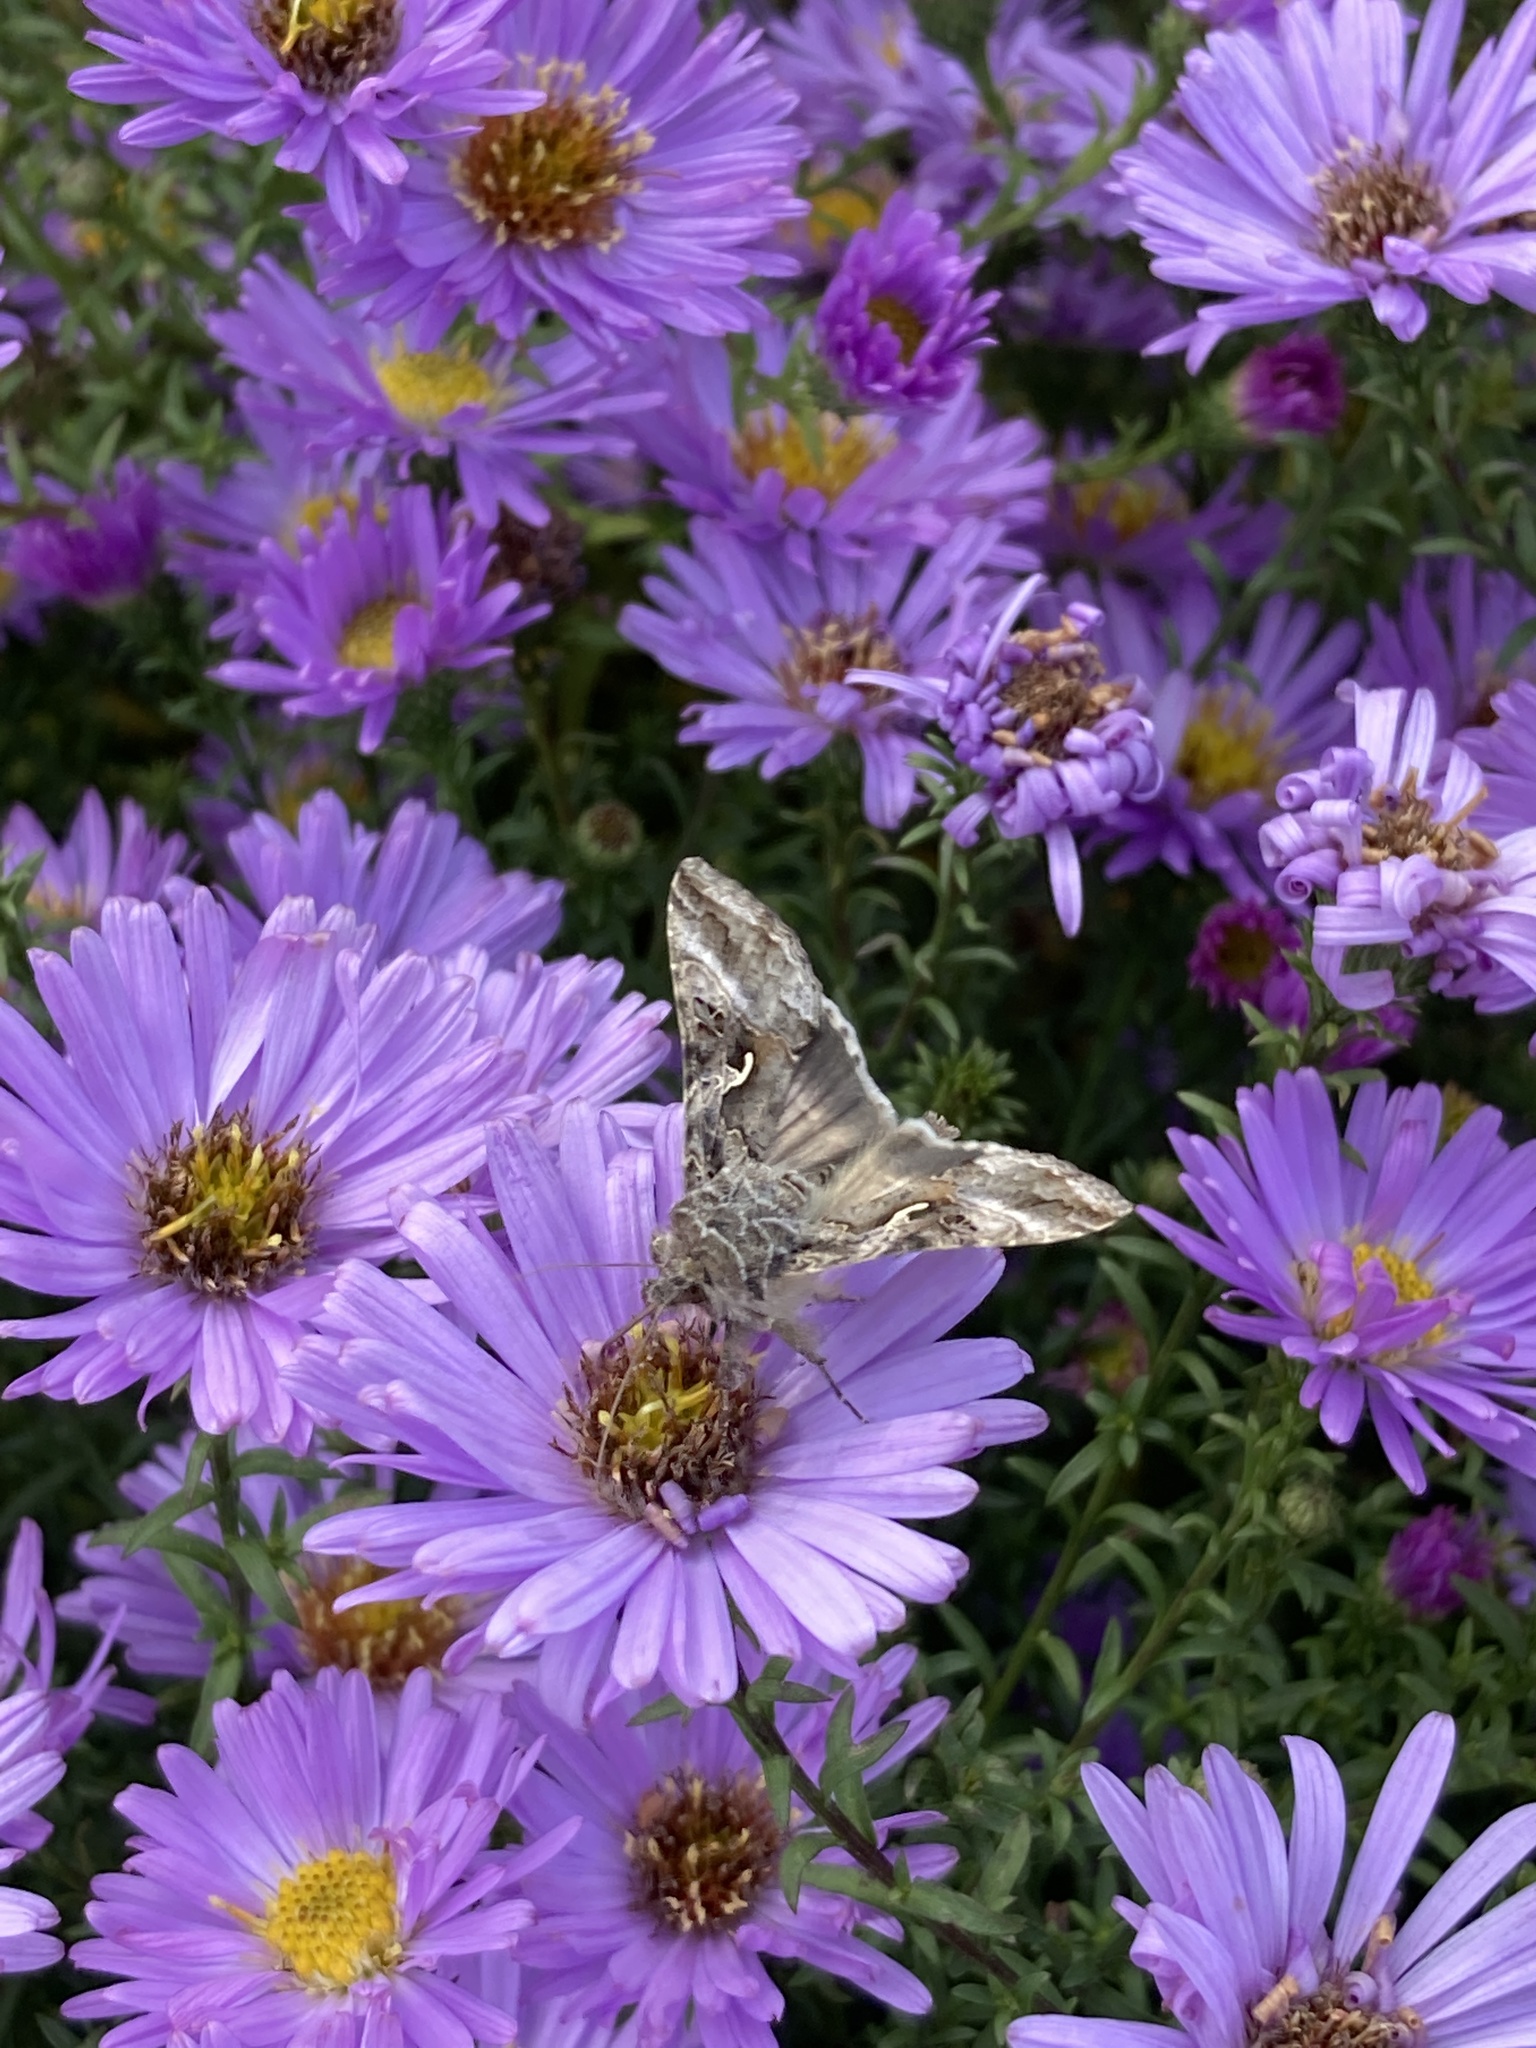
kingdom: Animalia
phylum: Arthropoda
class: Insecta
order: Lepidoptera
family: Noctuidae
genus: Autographa
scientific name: Autographa gamma
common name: Silver y
